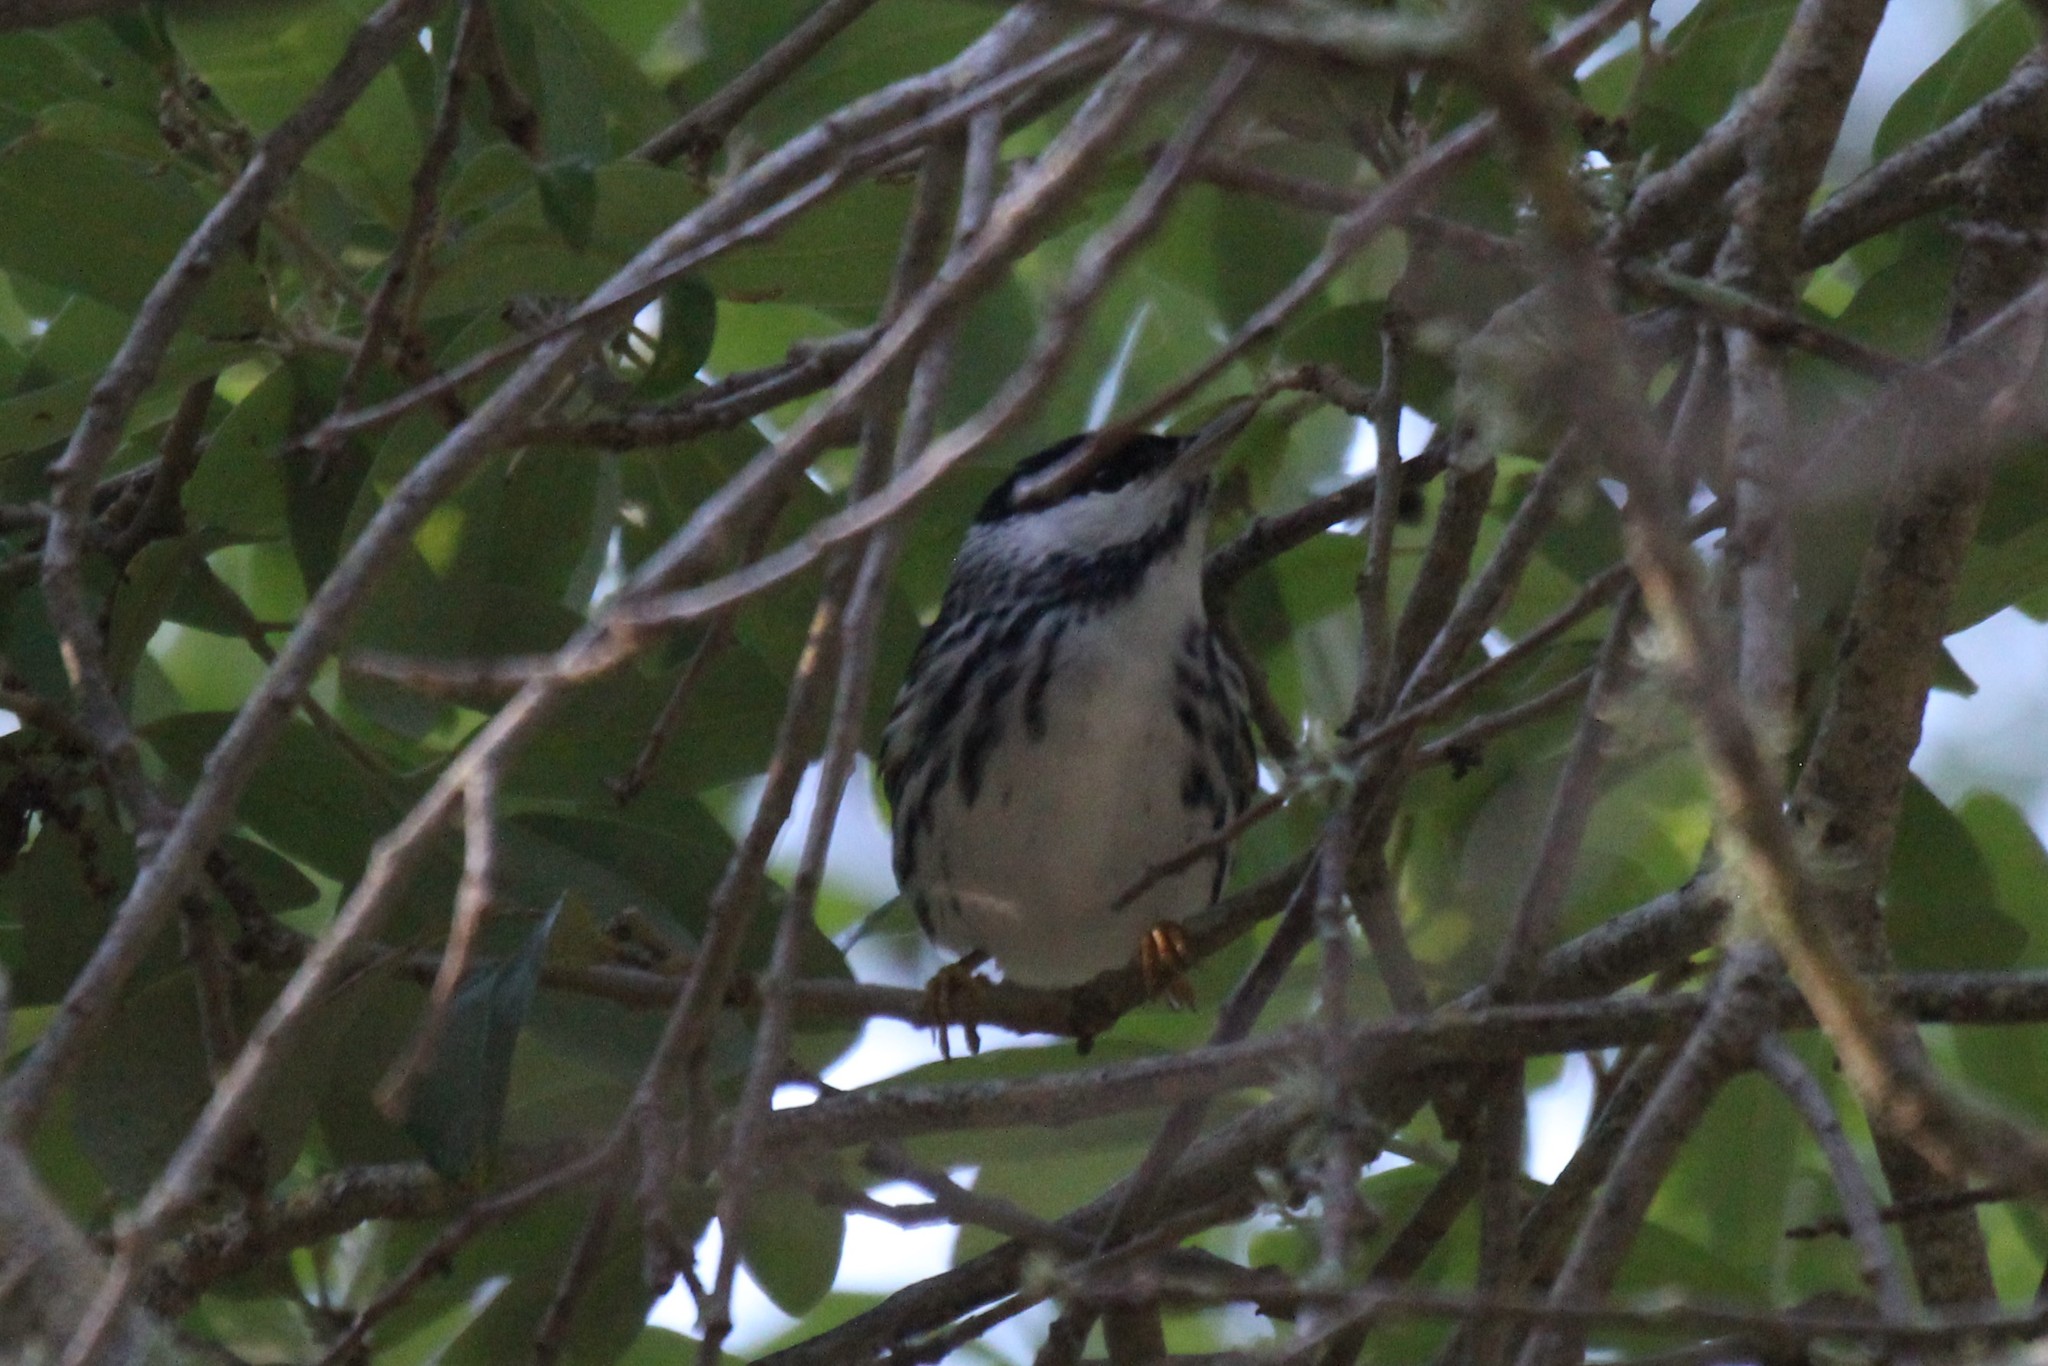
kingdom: Animalia
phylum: Chordata
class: Aves
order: Passeriformes
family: Parulidae
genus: Setophaga
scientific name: Setophaga striata
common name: Blackpoll warbler
